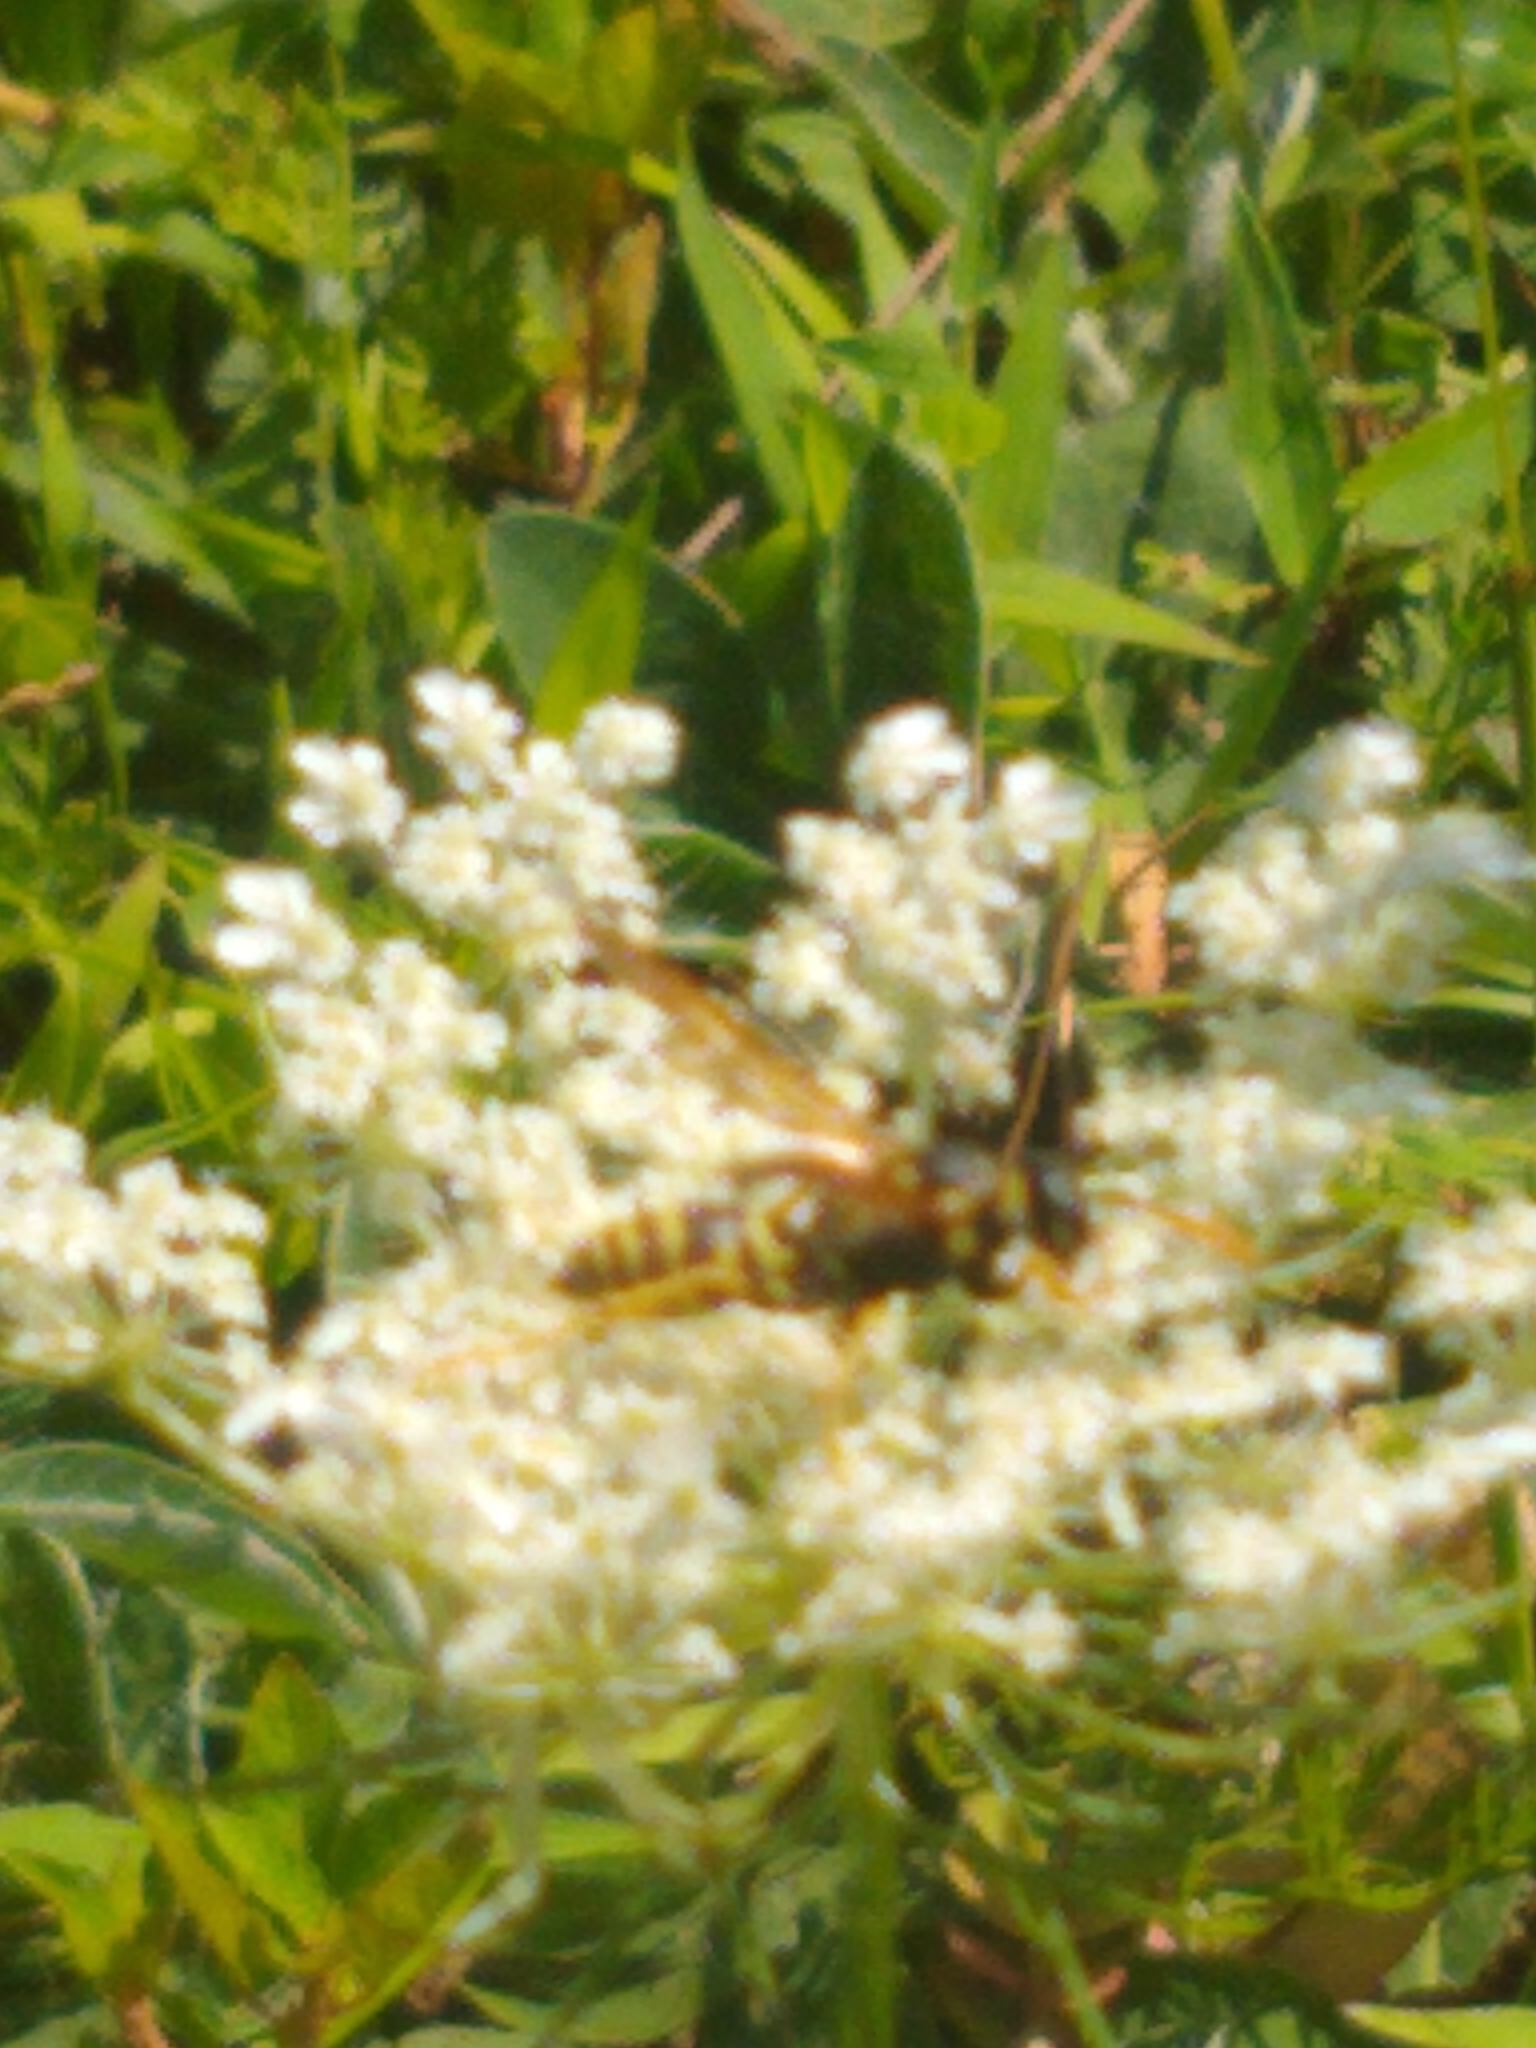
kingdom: Animalia
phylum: Arthropoda
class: Insecta
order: Hymenoptera
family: Eumenidae
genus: Polistes
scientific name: Polistes dominula
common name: Paper wasp
